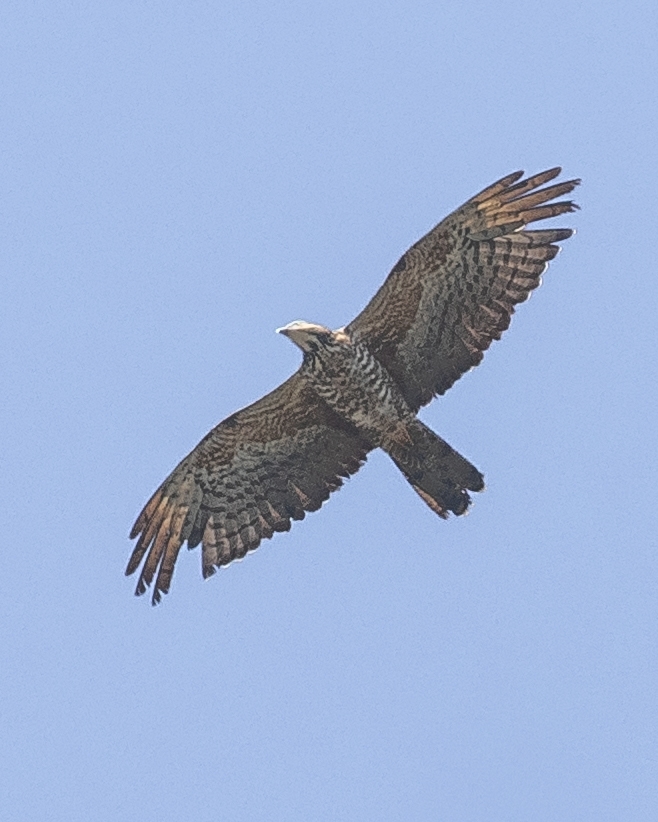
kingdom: Animalia
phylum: Chordata
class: Aves
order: Accipitriformes
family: Accipitridae
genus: Pernis
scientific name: Pernis ptilorhynchus
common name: Crested honey buzzard
